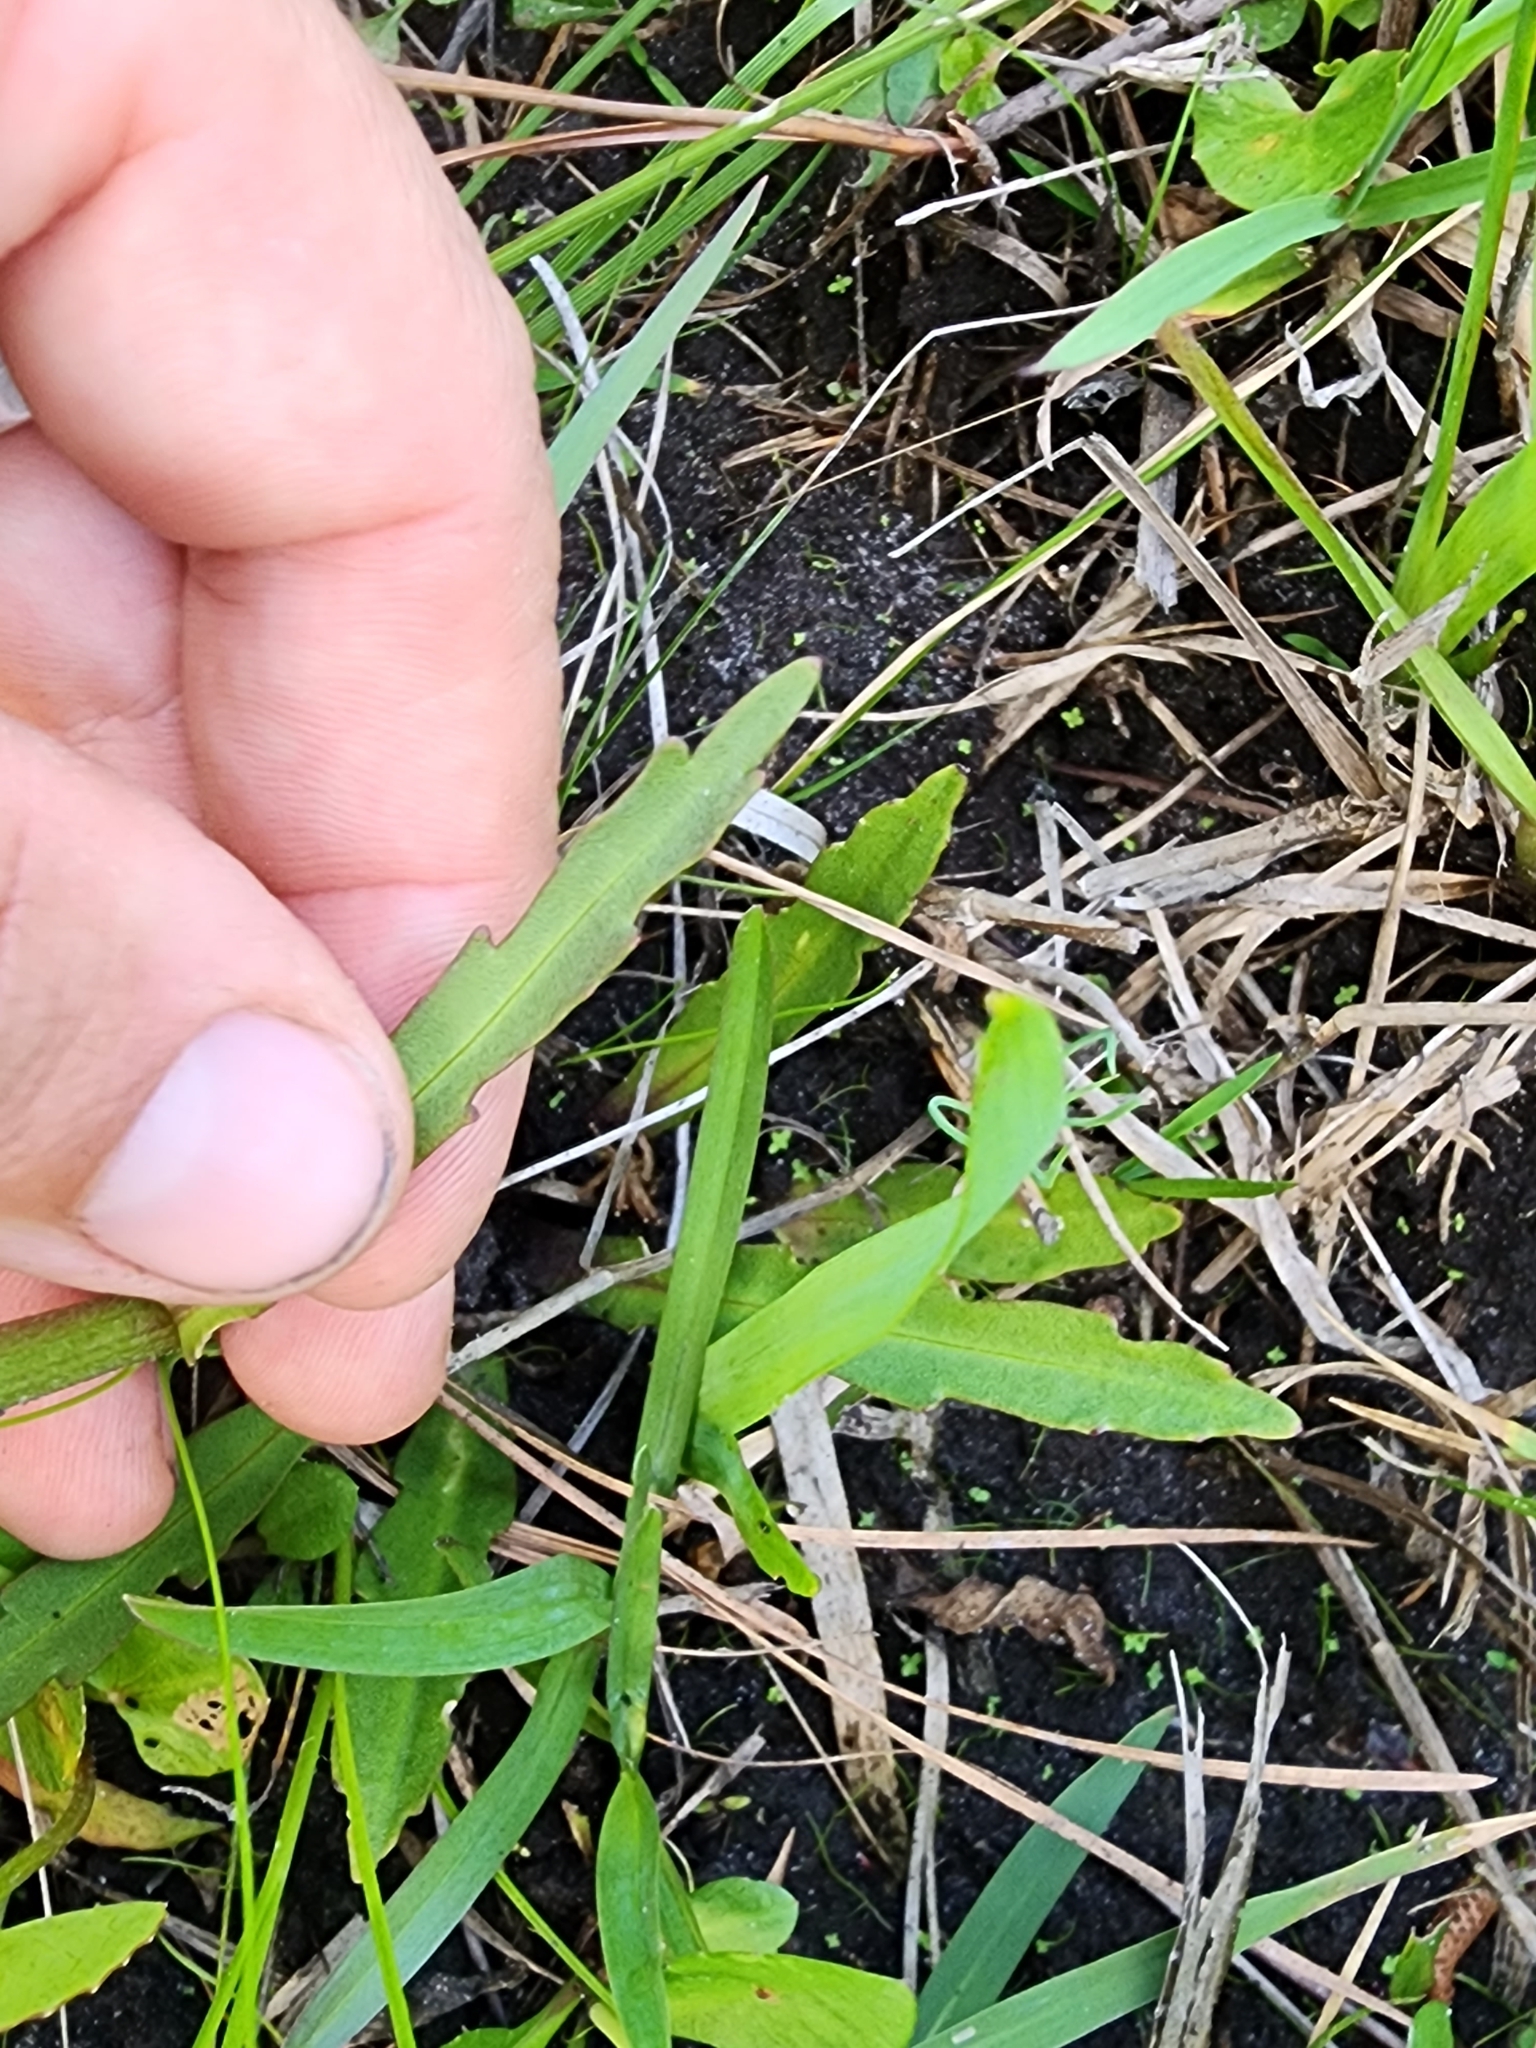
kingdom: Plantae
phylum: Tracheophyta
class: Magnoliopsida
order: Asterales
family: Asteraceae
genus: Helenium
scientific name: Helenium pinnatifidum
